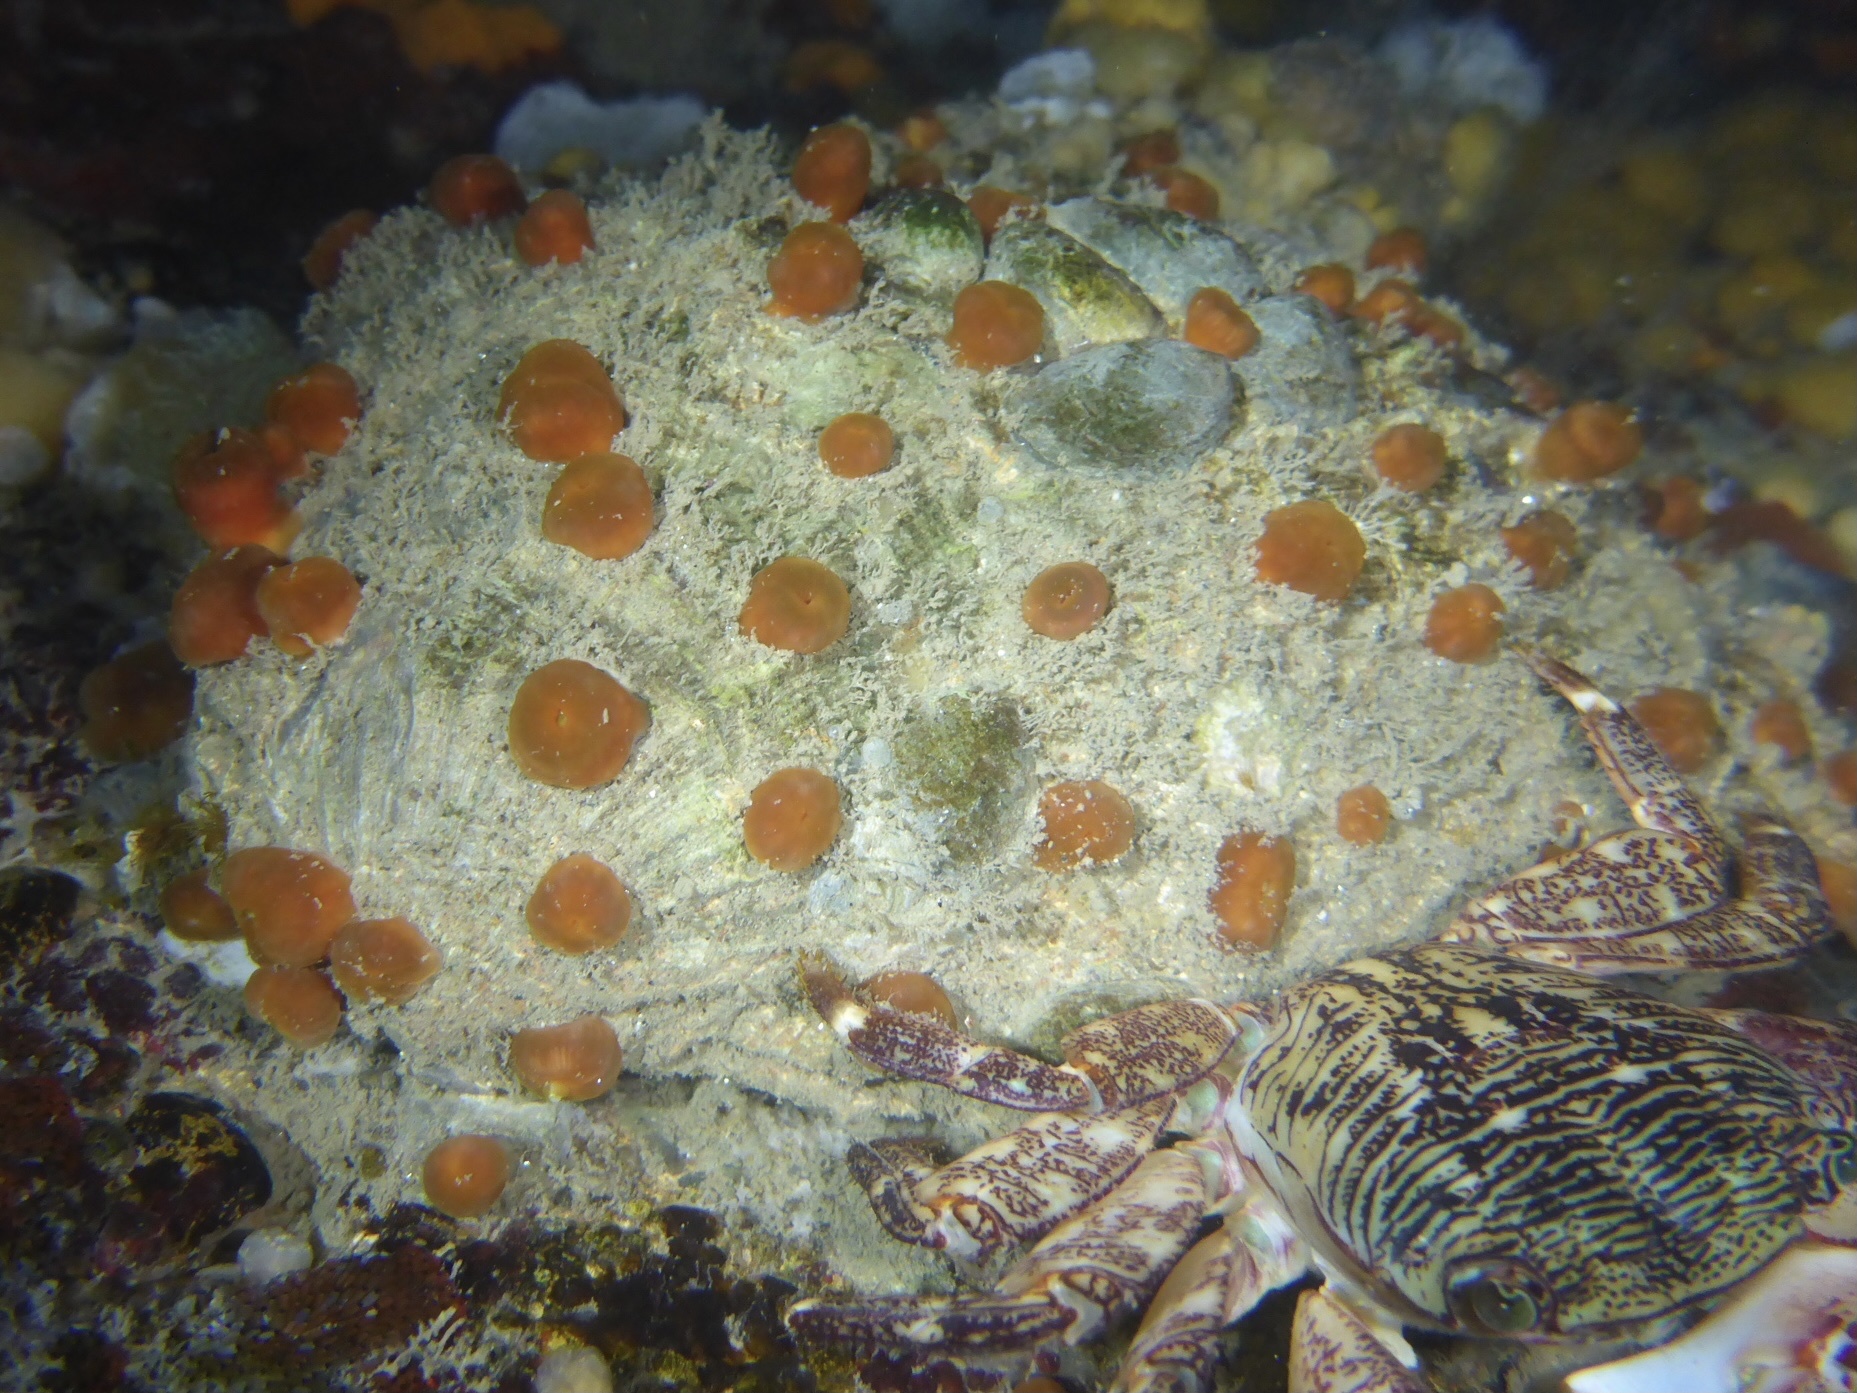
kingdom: Animalia
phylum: Mollusca
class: Bivalvia
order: Pectinida
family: Pectinidae
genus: Crassadoma
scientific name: Crassadoma gigantea
